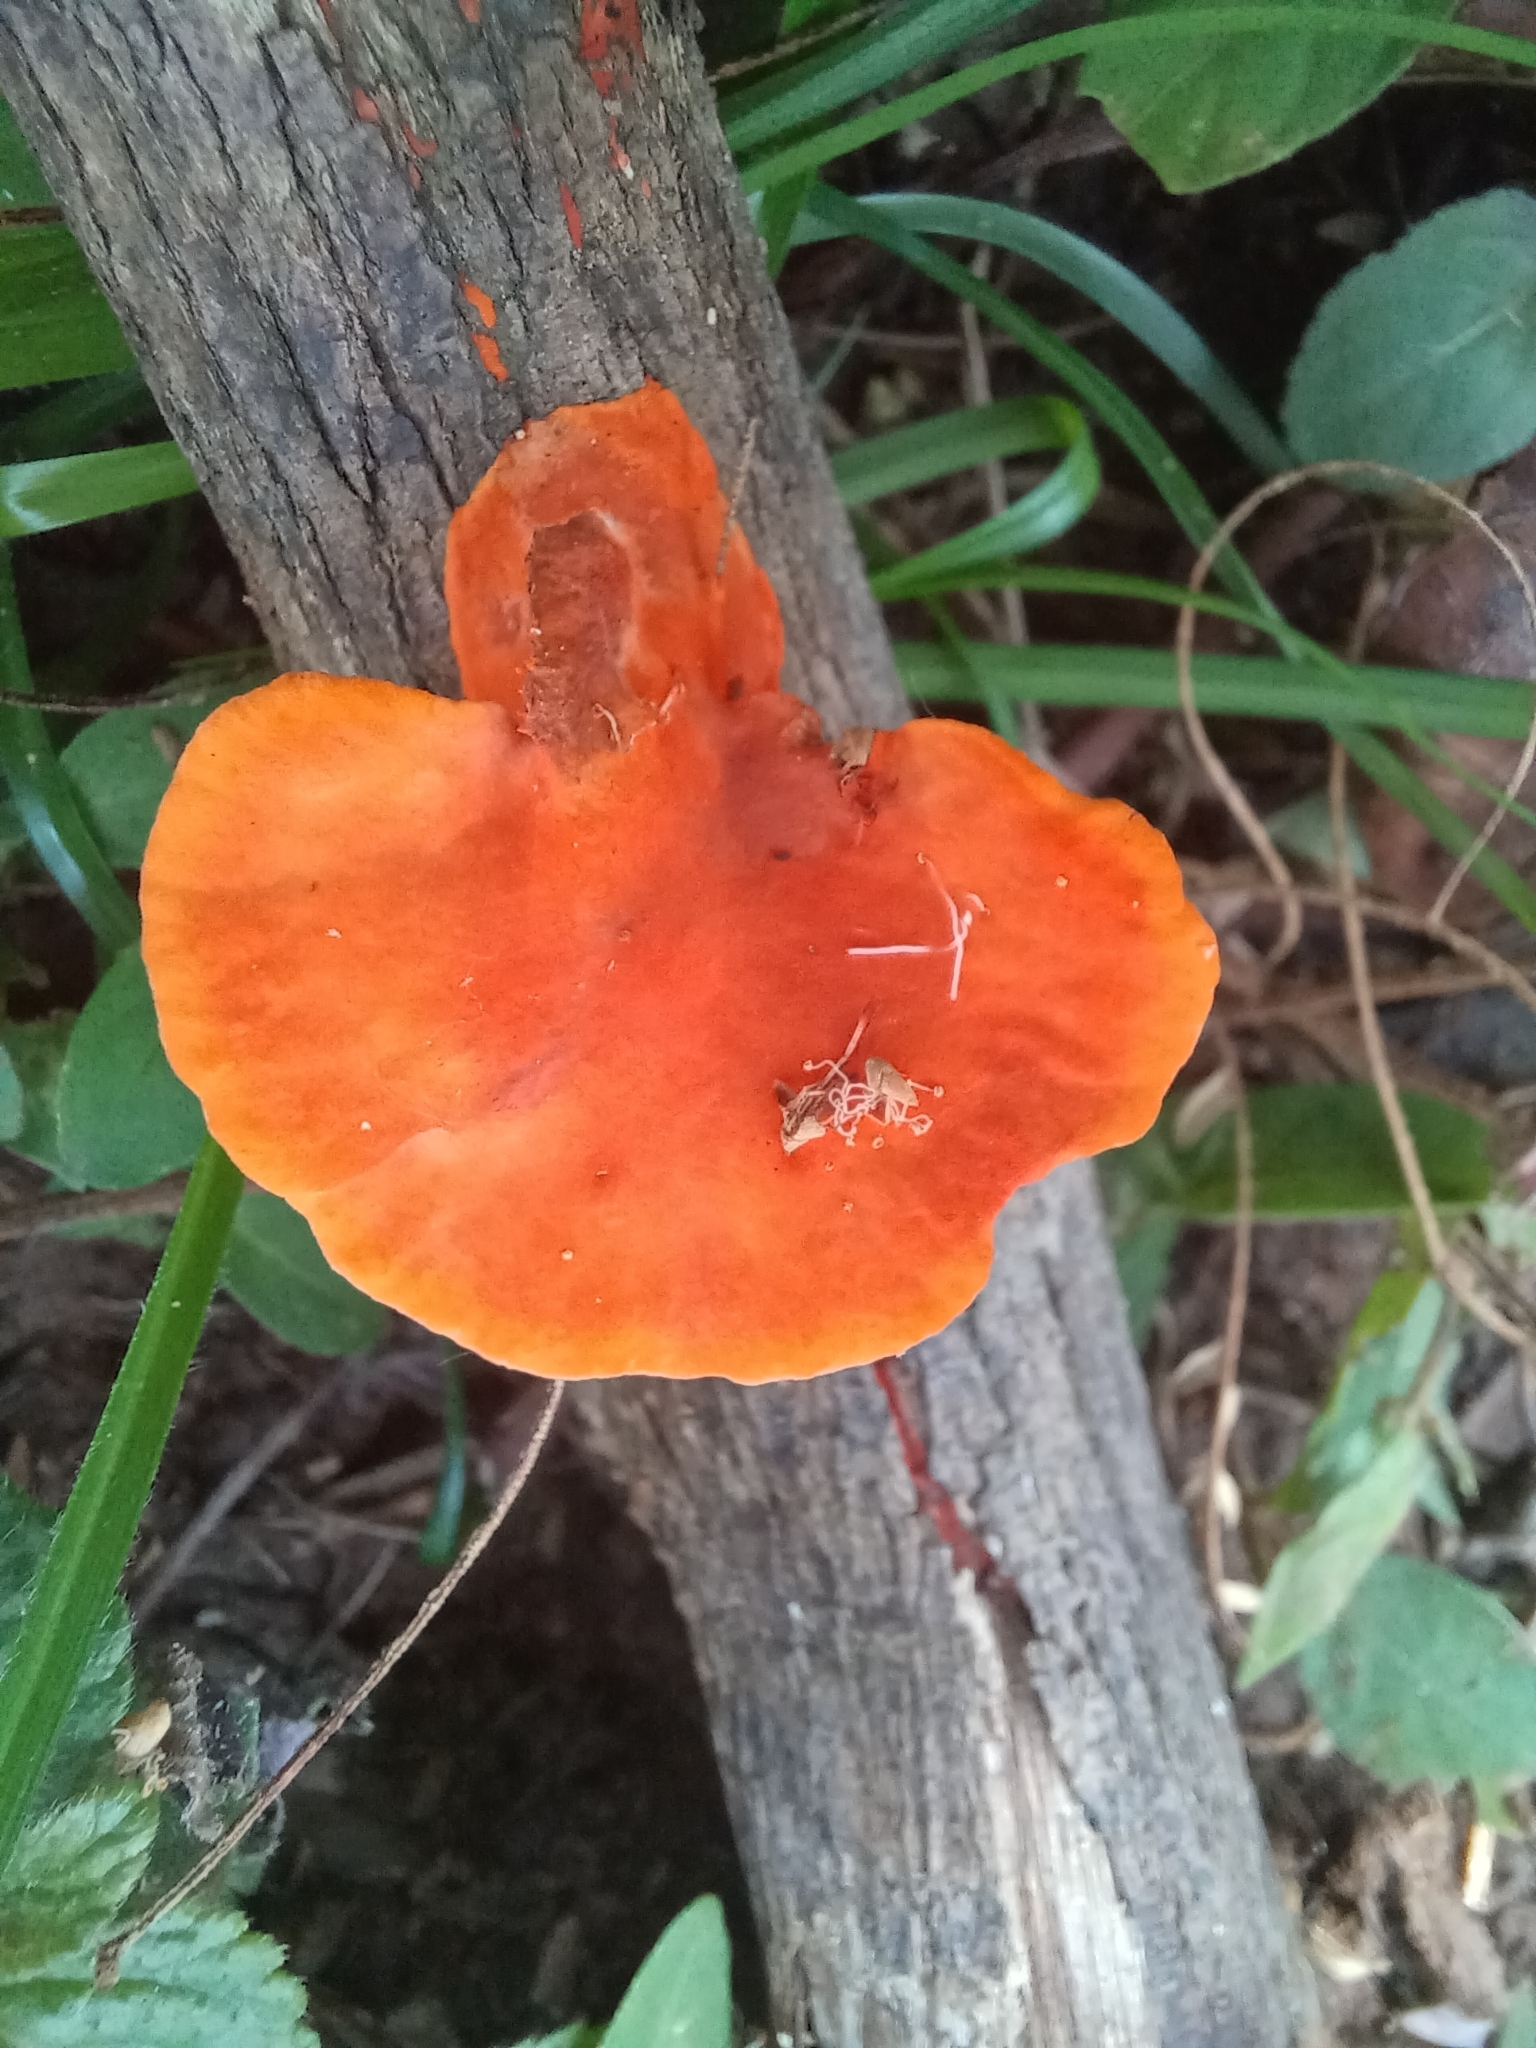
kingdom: Fungi
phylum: Basidiomycota
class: Agaricomycetes
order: Polyporales
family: Polyporaceae
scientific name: Polyporaceae
